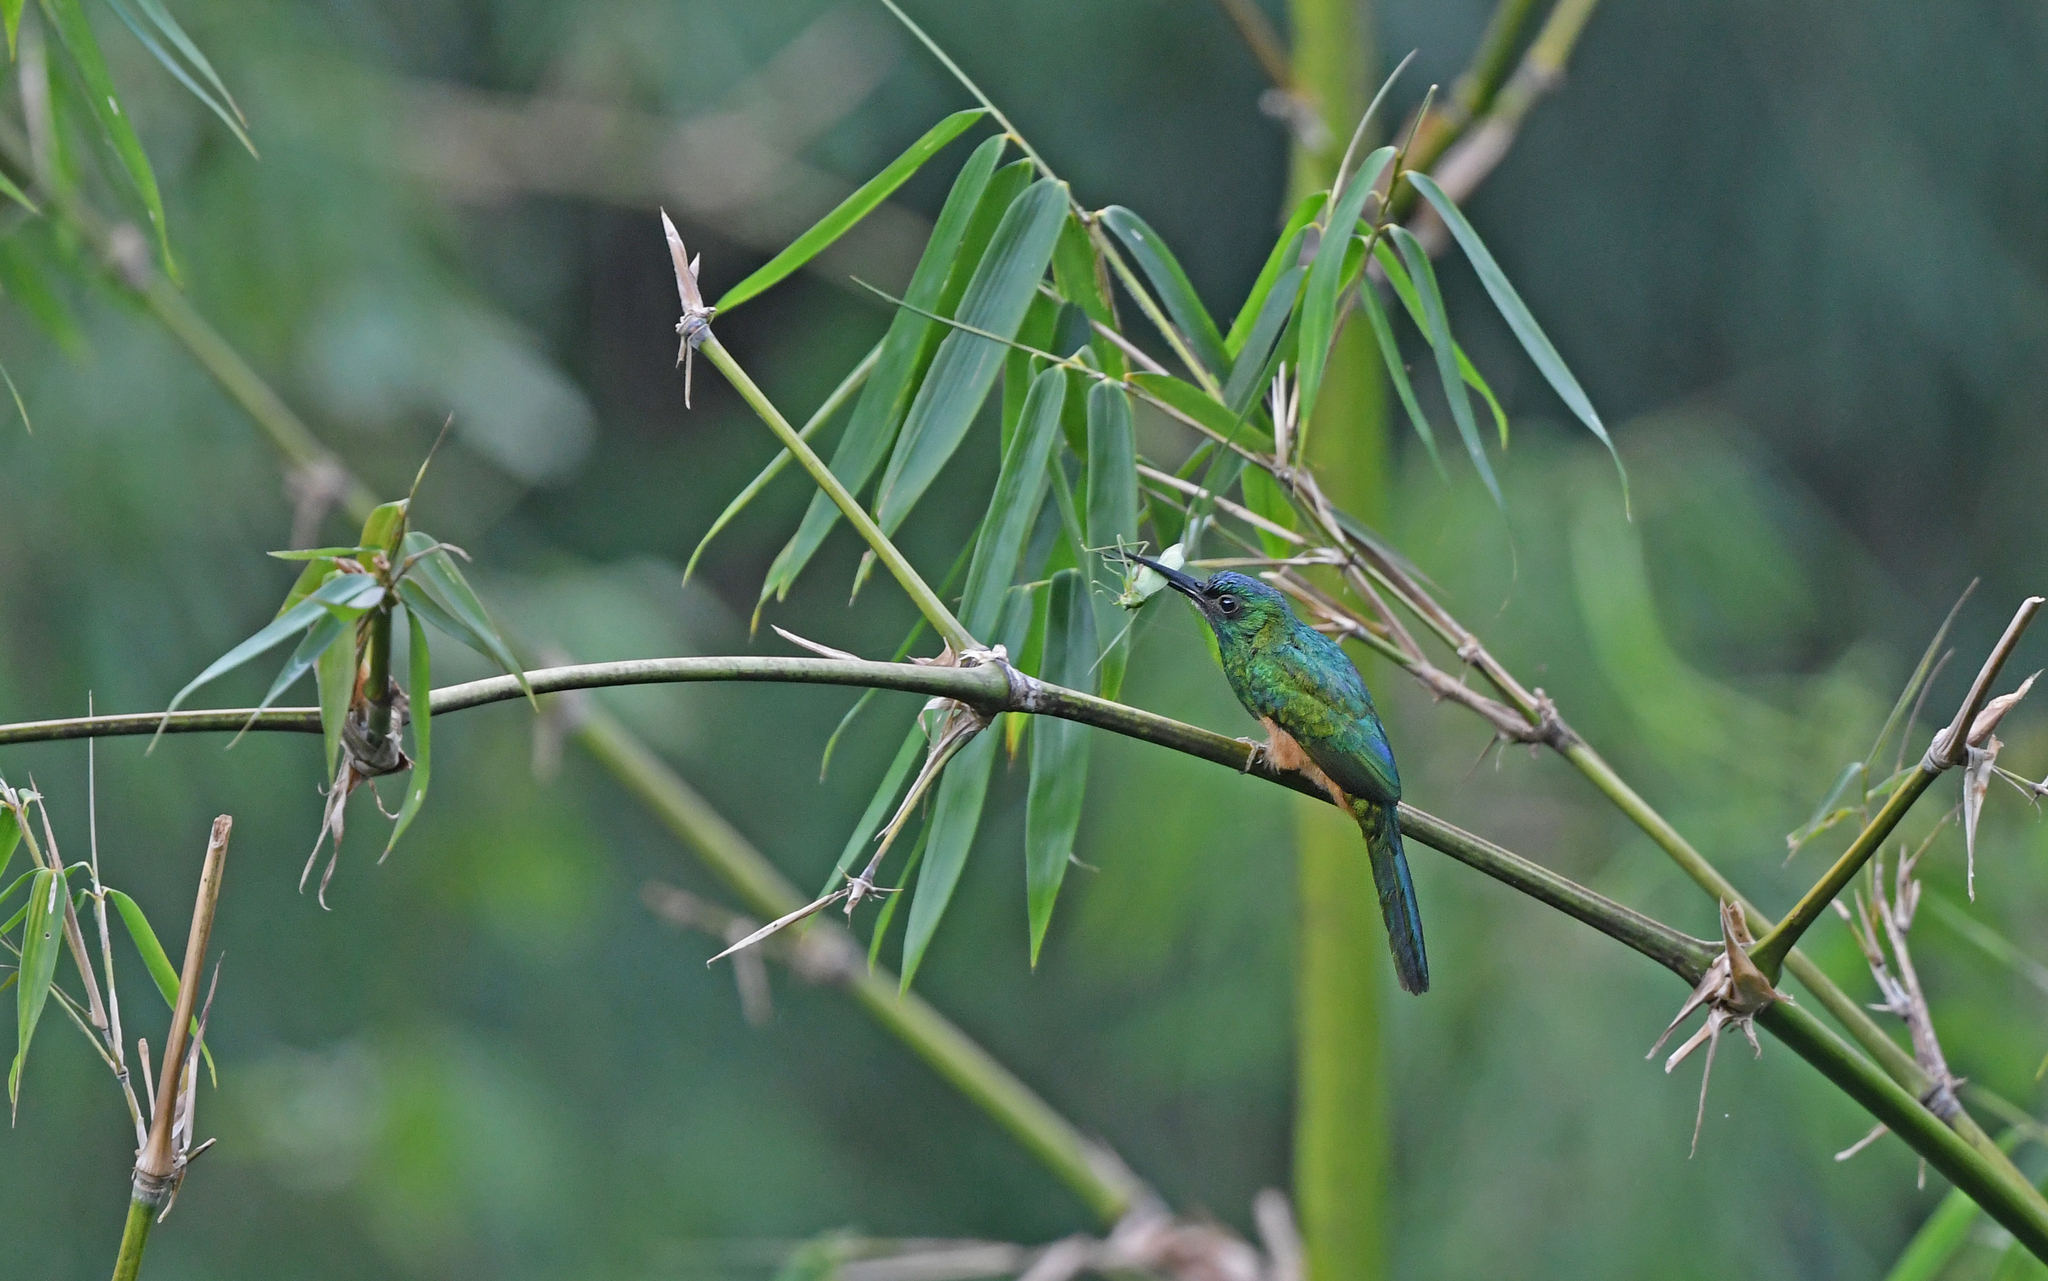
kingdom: Animalia
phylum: Chordata
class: Aves
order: Piciformes
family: Galbulidae
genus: Galbula
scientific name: Galbula cyanescens
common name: Bluish-fronted jacamar
